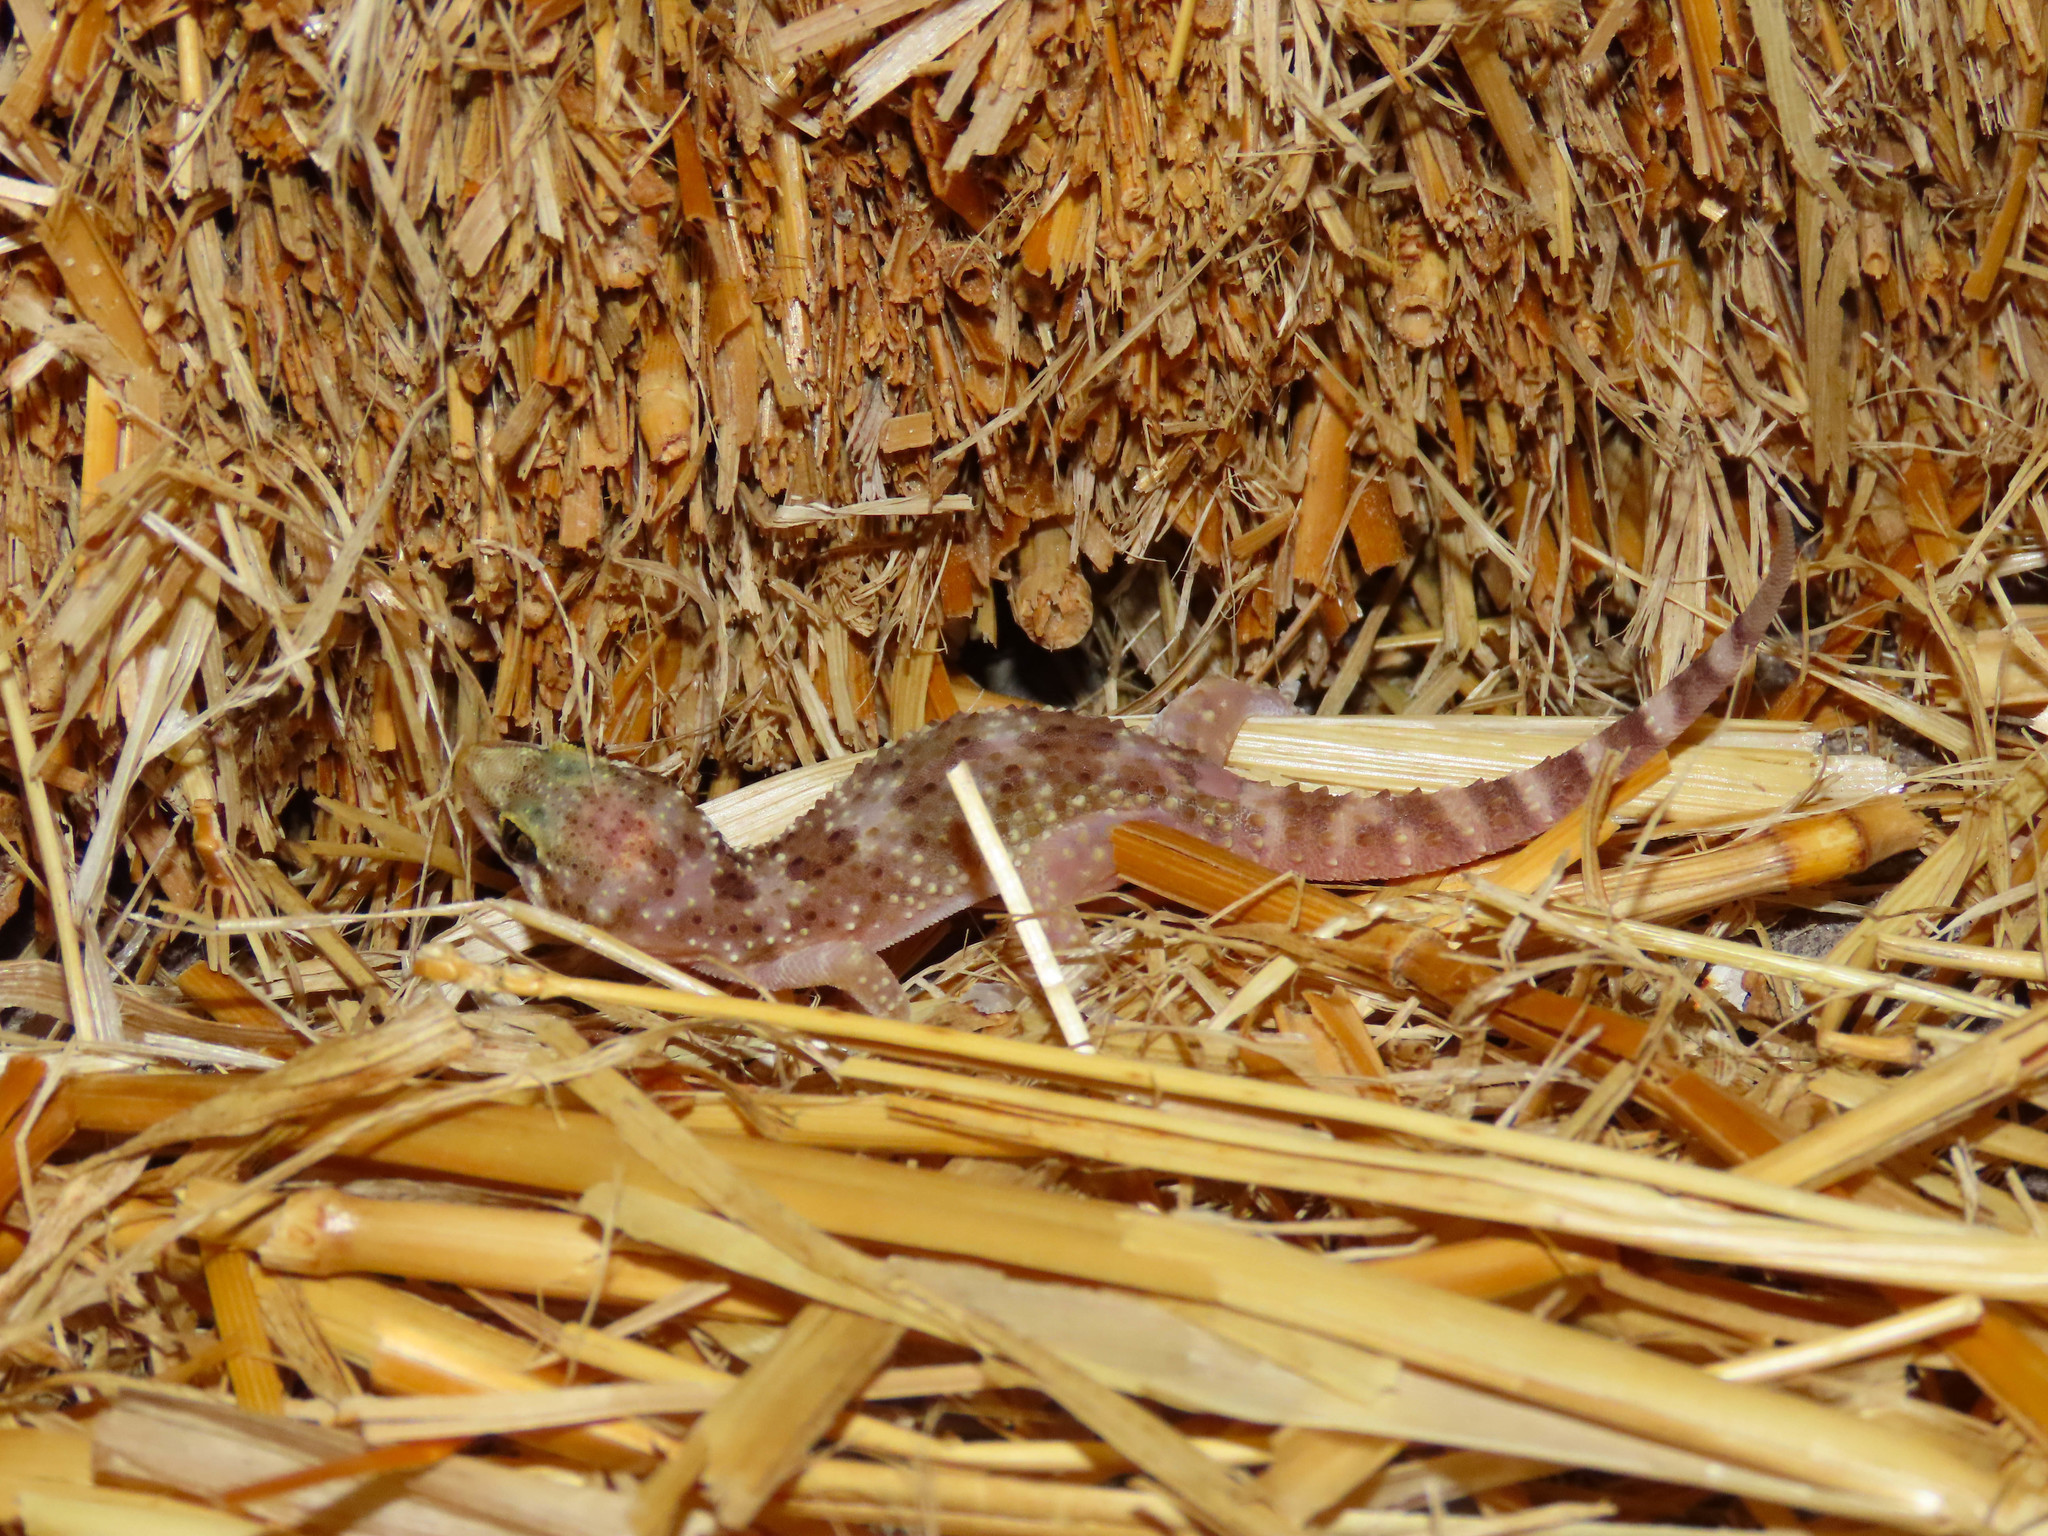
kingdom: Animalia
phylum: Chordata
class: Squamata
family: Gekkonidae
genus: Hemidactylus
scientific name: Hemidactylus turcicus
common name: Turkish gecko
